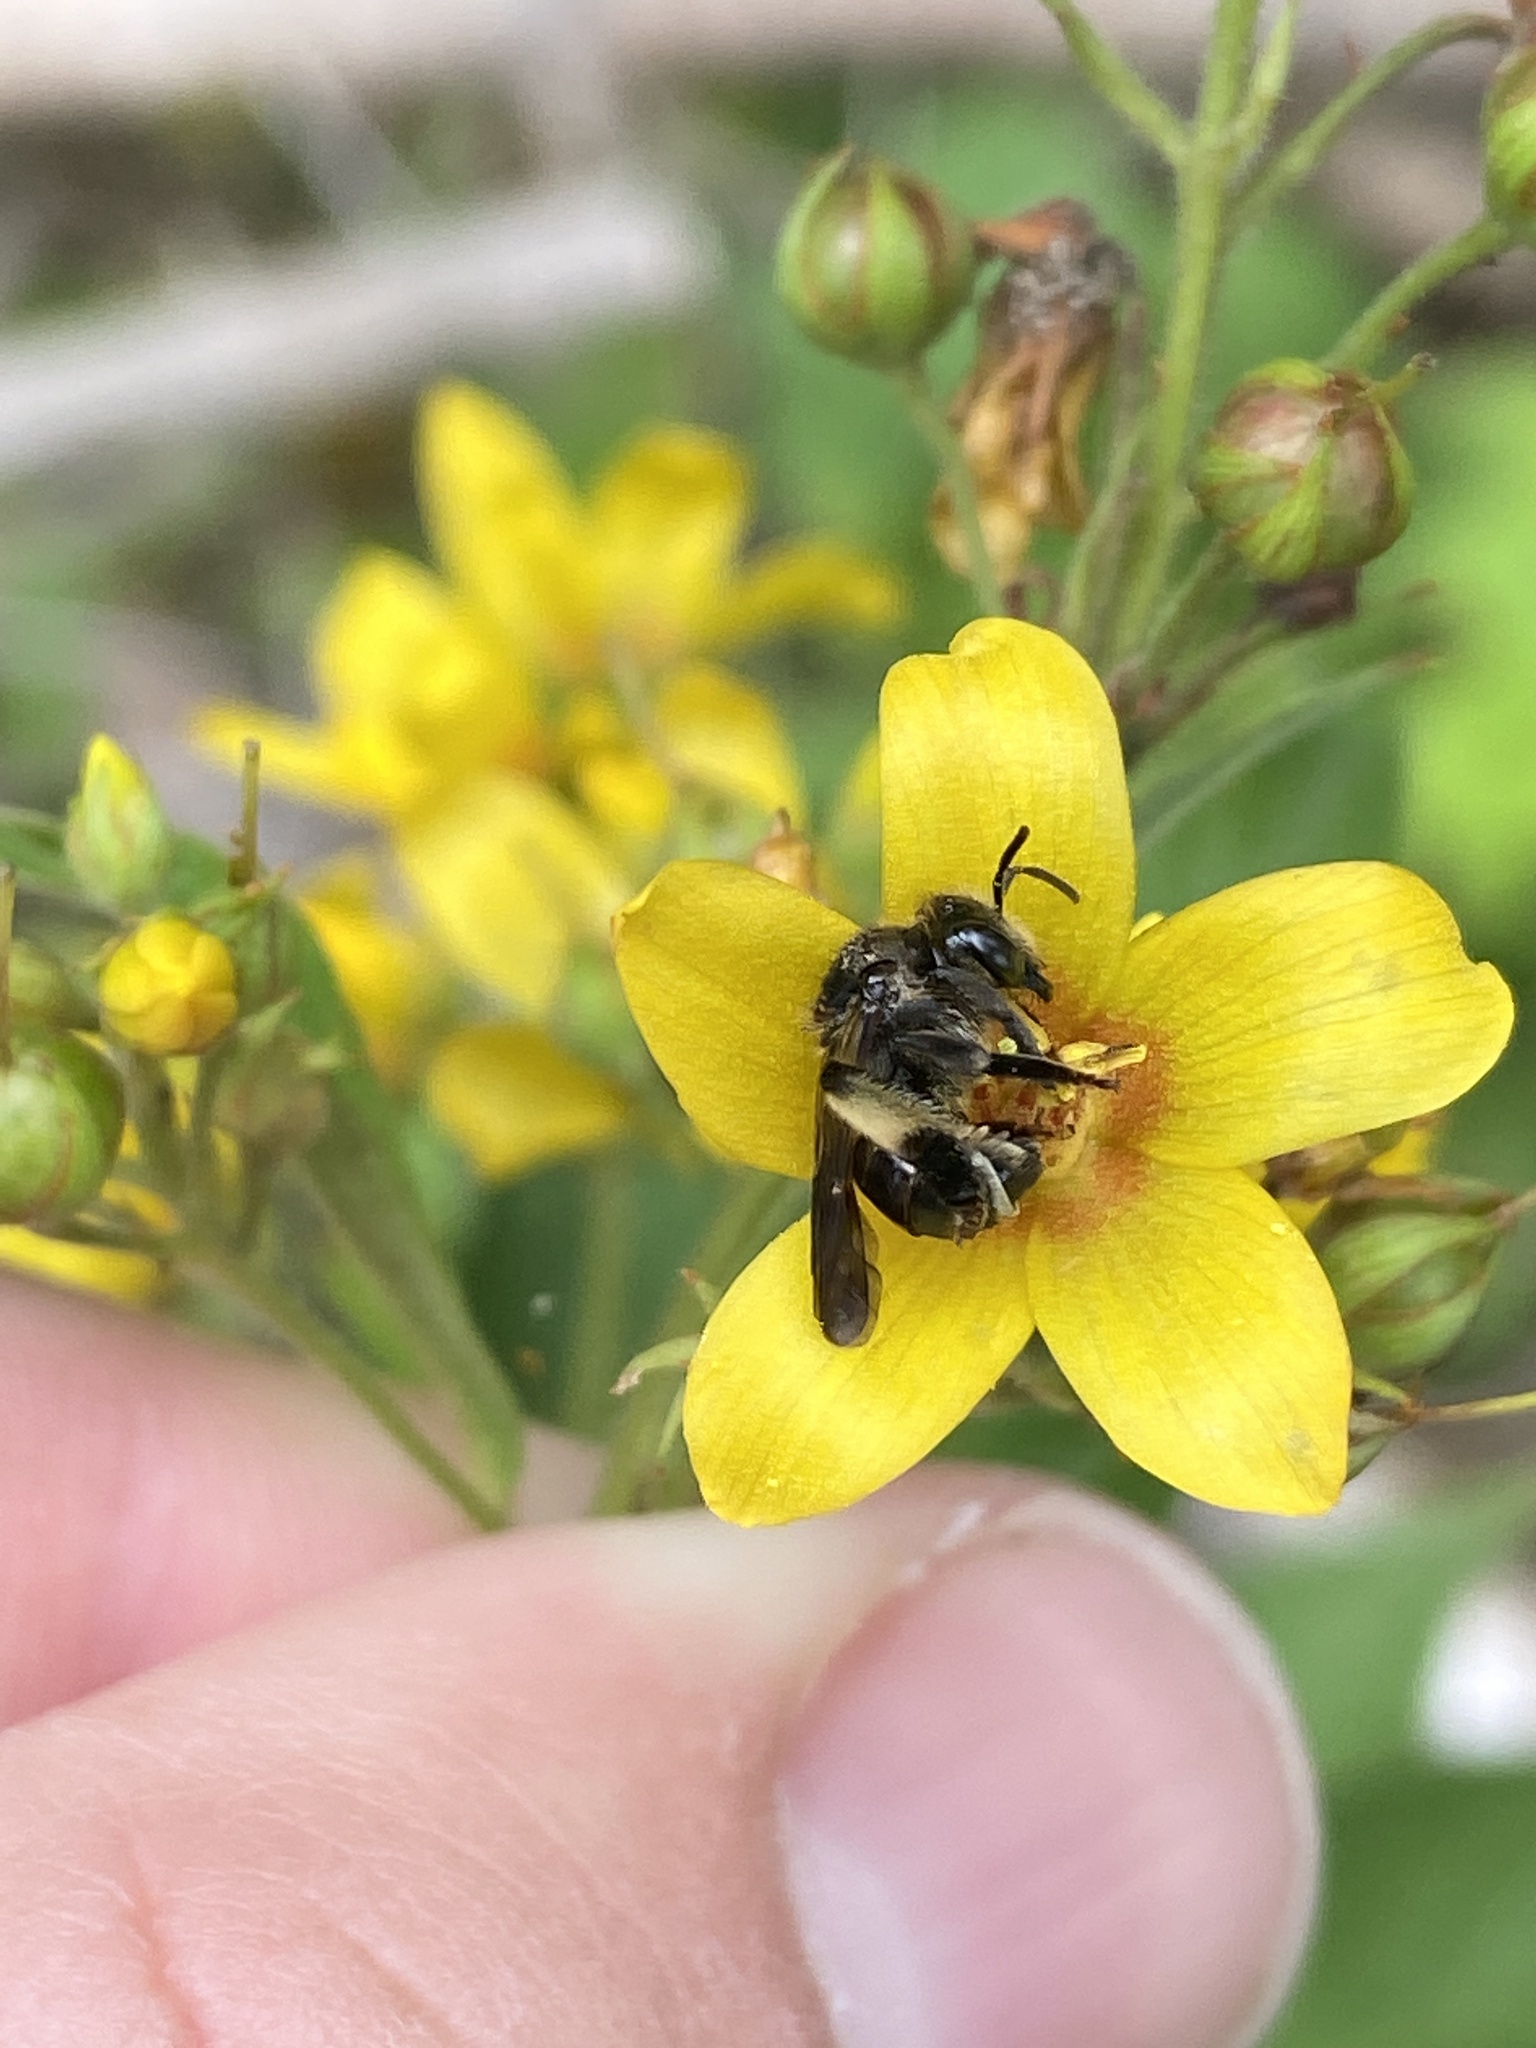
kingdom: Animalia
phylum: Arthropoda
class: Insecta
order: Hymenoptera
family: Melittidae
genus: Macropis
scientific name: Macropis europaea
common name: Yellow loosestrife bee
